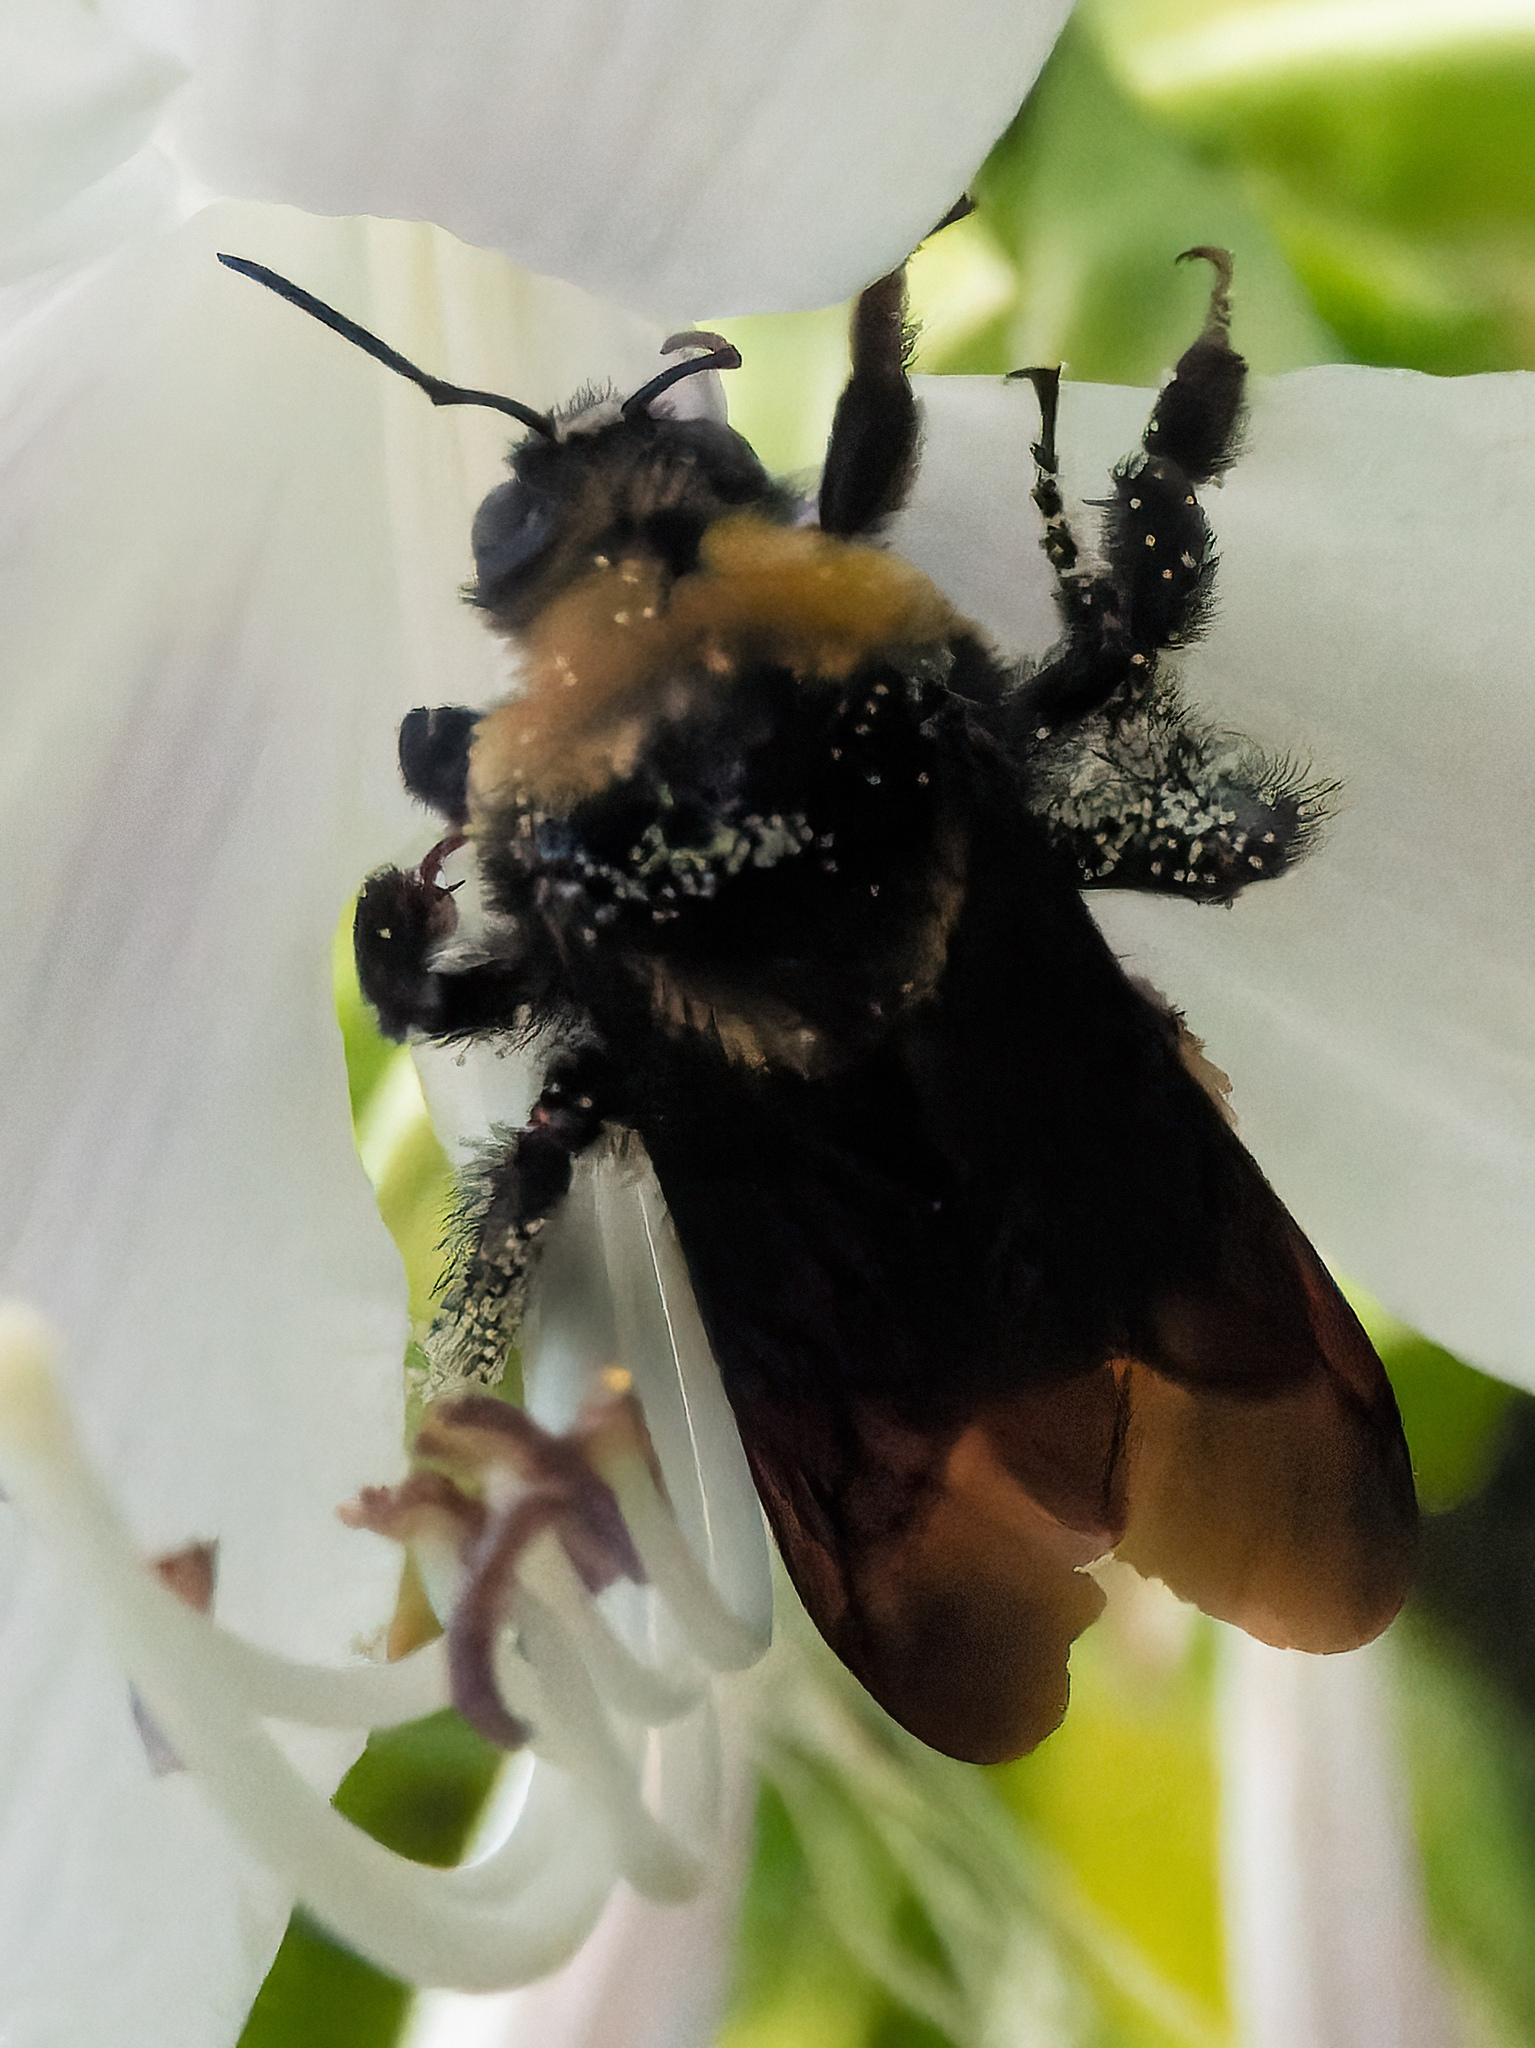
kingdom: Animalia
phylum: Arthropoda
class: Insecta
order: Hymenoptera
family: Apidae
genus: Bombus
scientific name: Bombus auricomus
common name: Black and gold bumble bee
